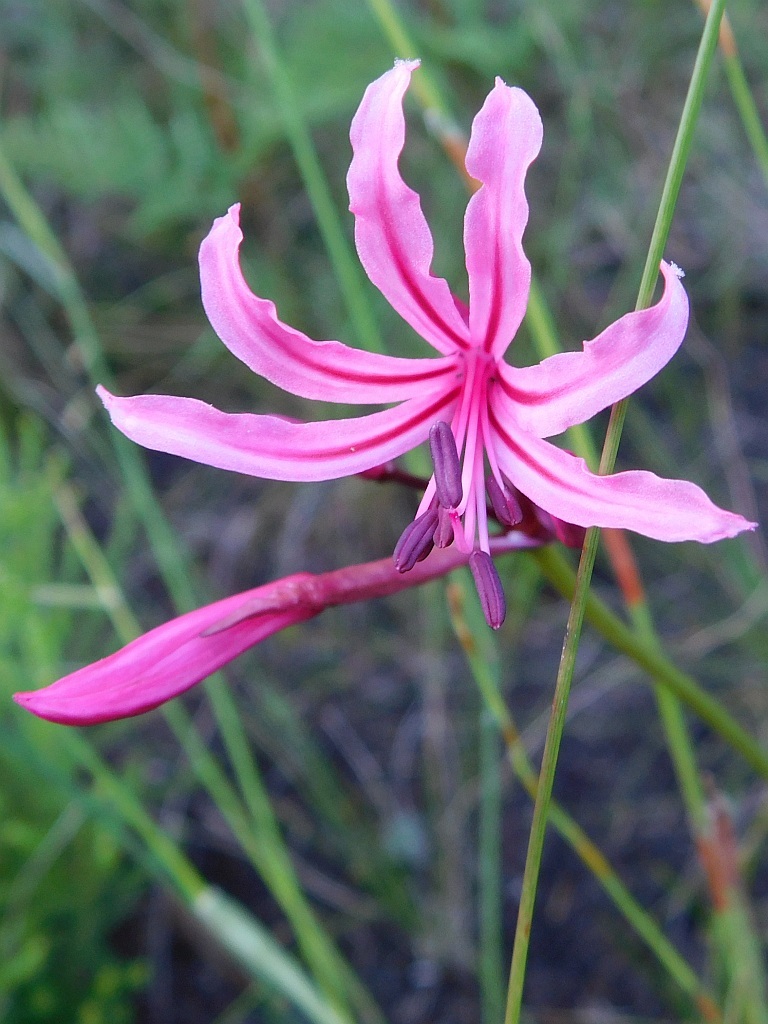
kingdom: Plantae
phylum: Tracheophyta
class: Liliopsida
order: Asparagales
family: Amaryllidaceae
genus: Nerine
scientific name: Nerine humilis
